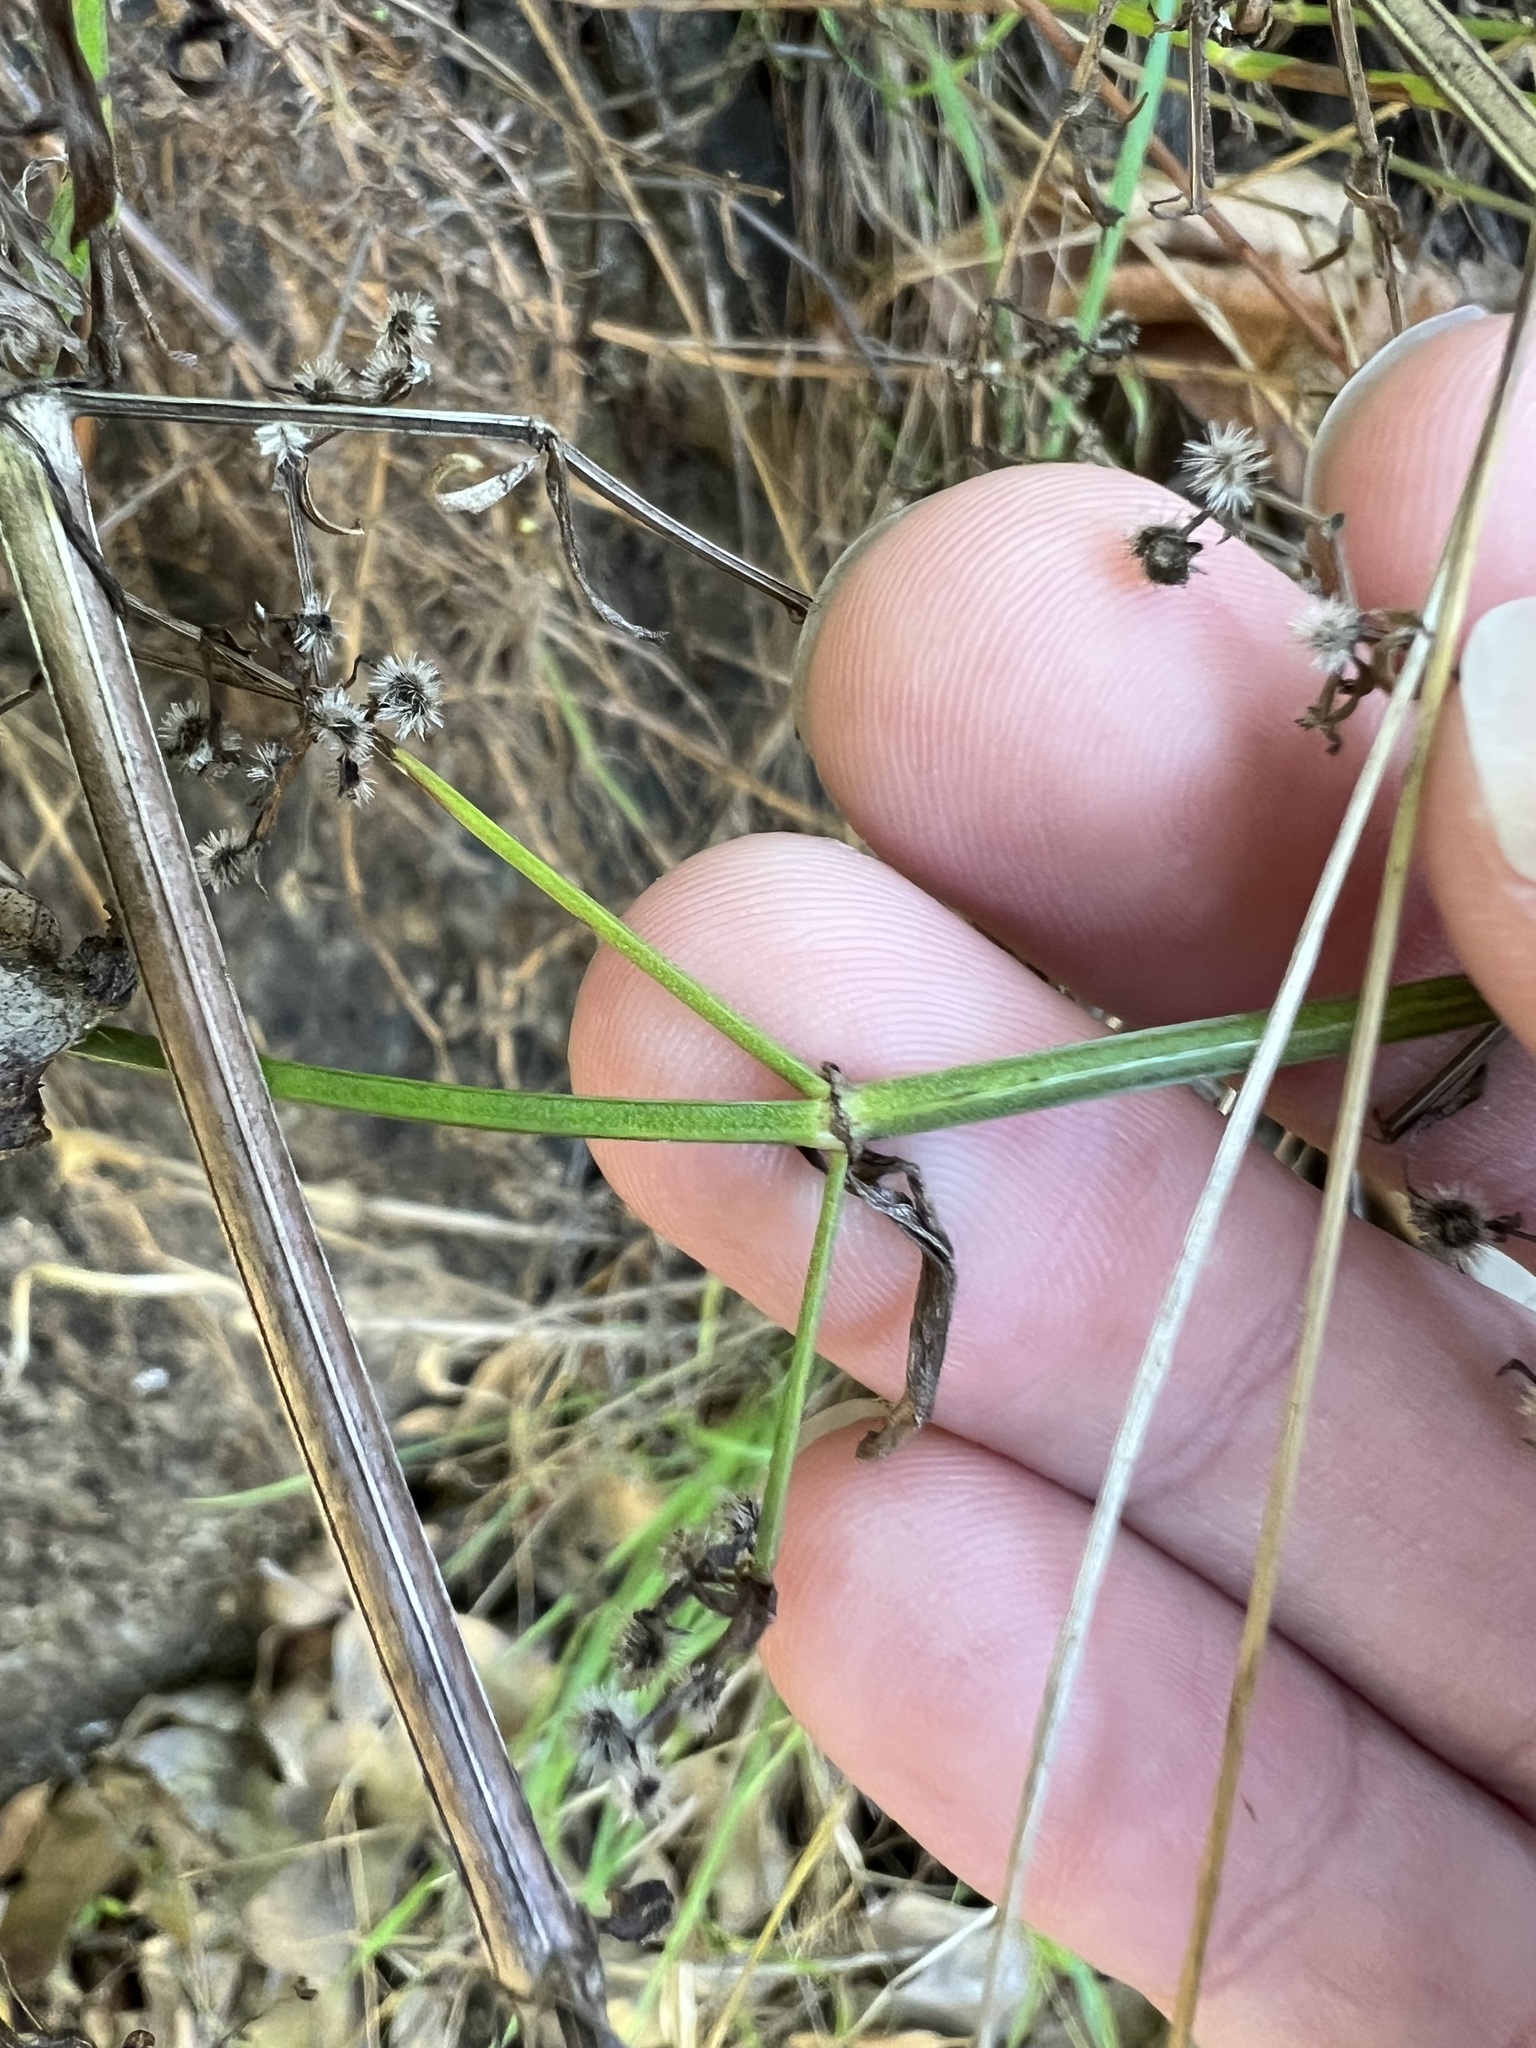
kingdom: Plantae
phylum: Tracheophyta
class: Magnoliopsida
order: Gentianales
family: Rubiaceae
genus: Galium
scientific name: Galium angustifolium
